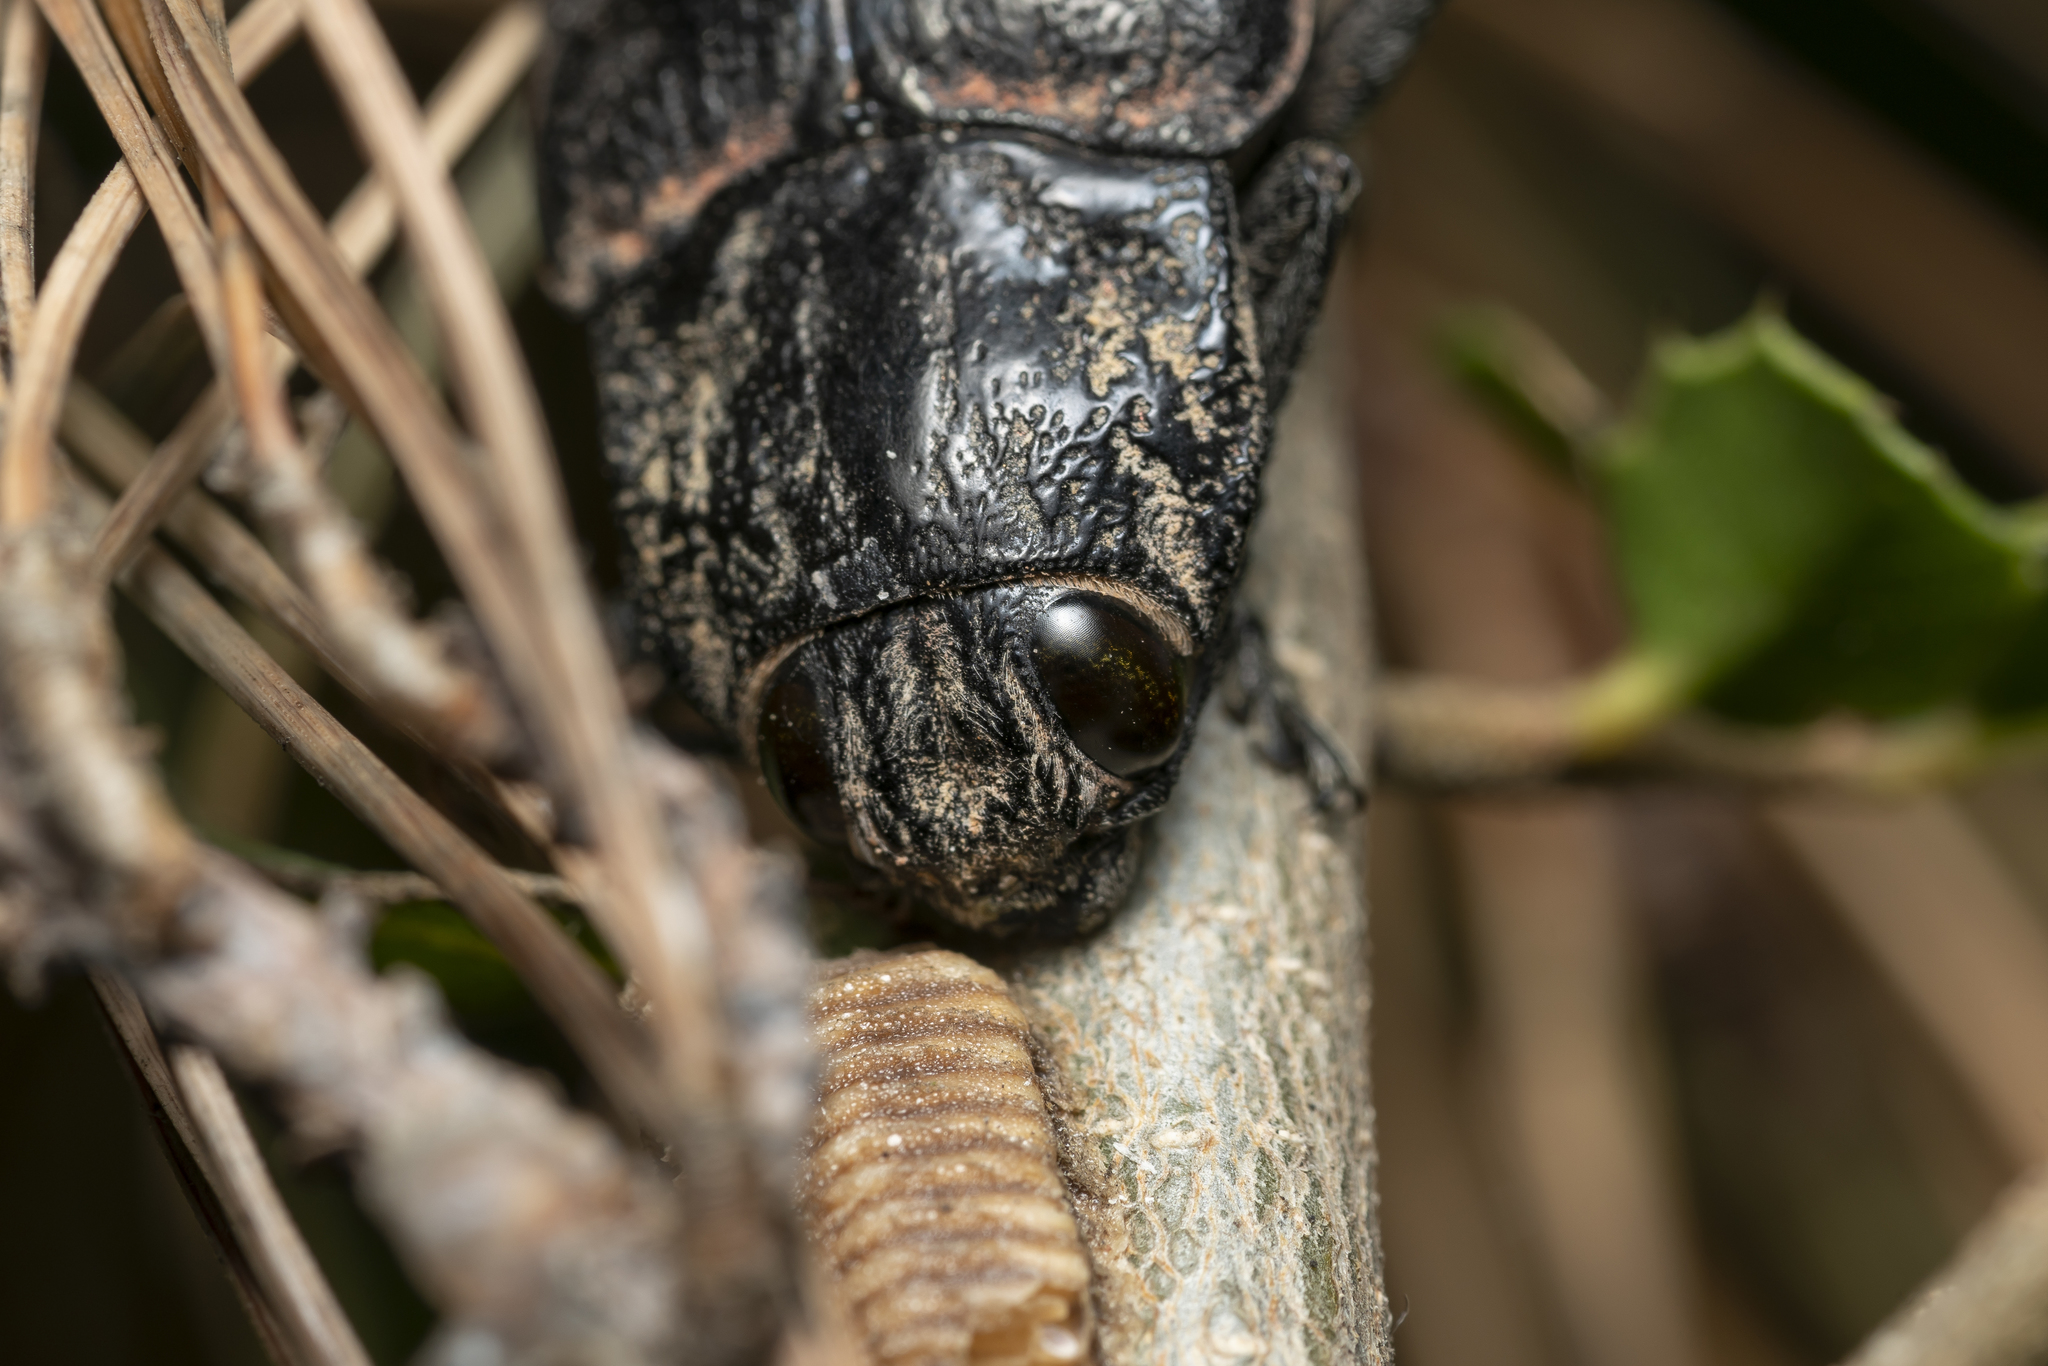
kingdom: Animalia
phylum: Arthropoda
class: Insecta
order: Coleoptera
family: Buprestidae
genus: Chalcophora
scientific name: Chalcophora detrita
